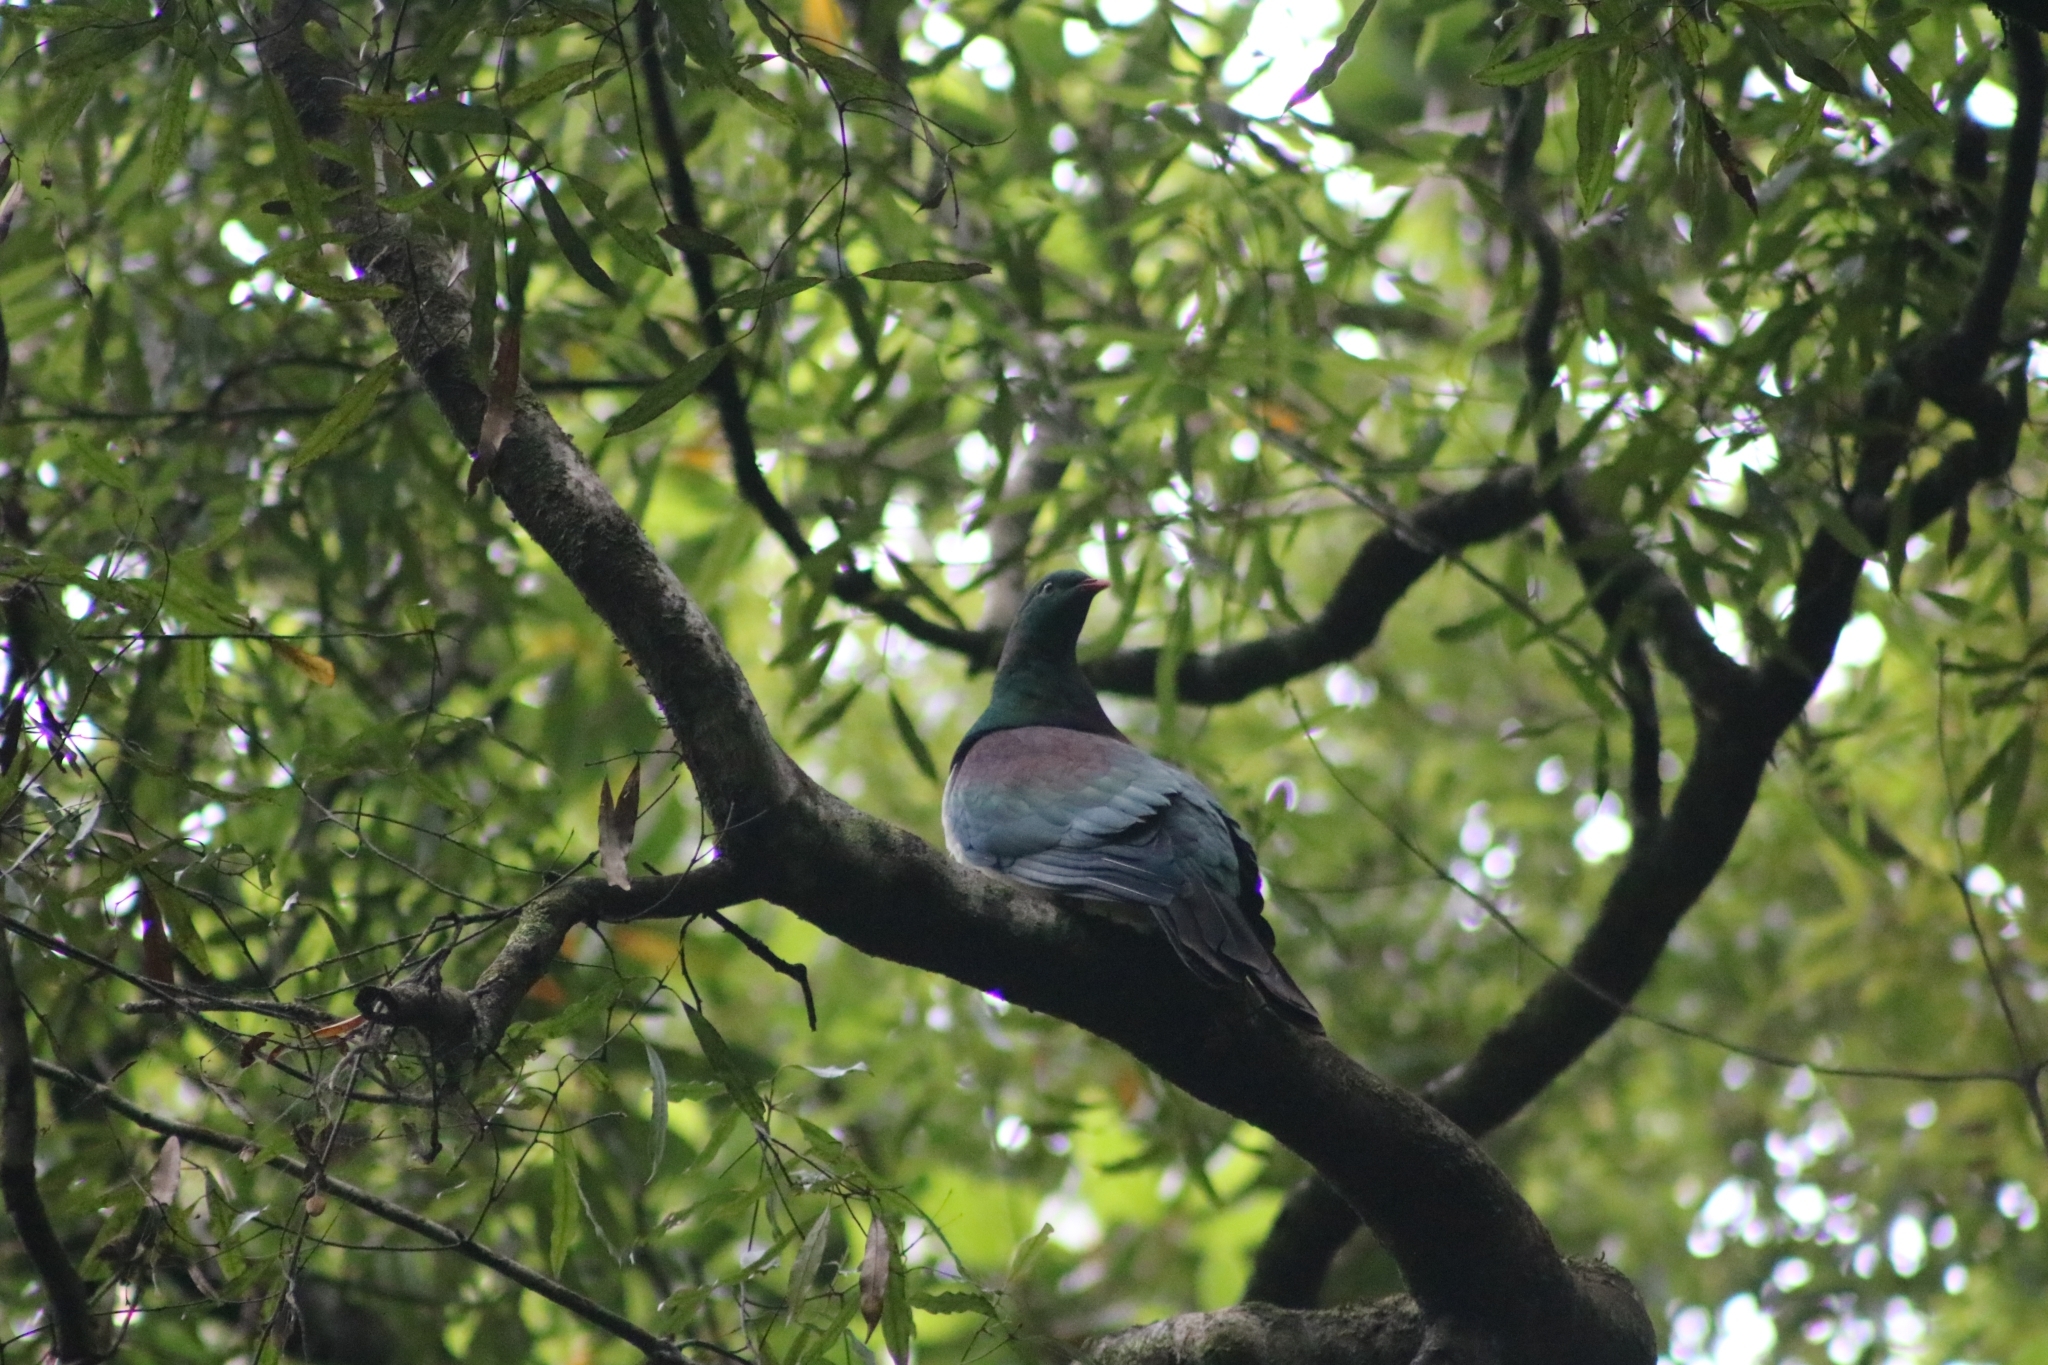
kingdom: Animalia
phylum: Chordata
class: Aves
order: Columbiformes
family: Columbidae
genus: Hemiphaga
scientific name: Hemiphaga novaeseelandiae
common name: New zealand pigeon
